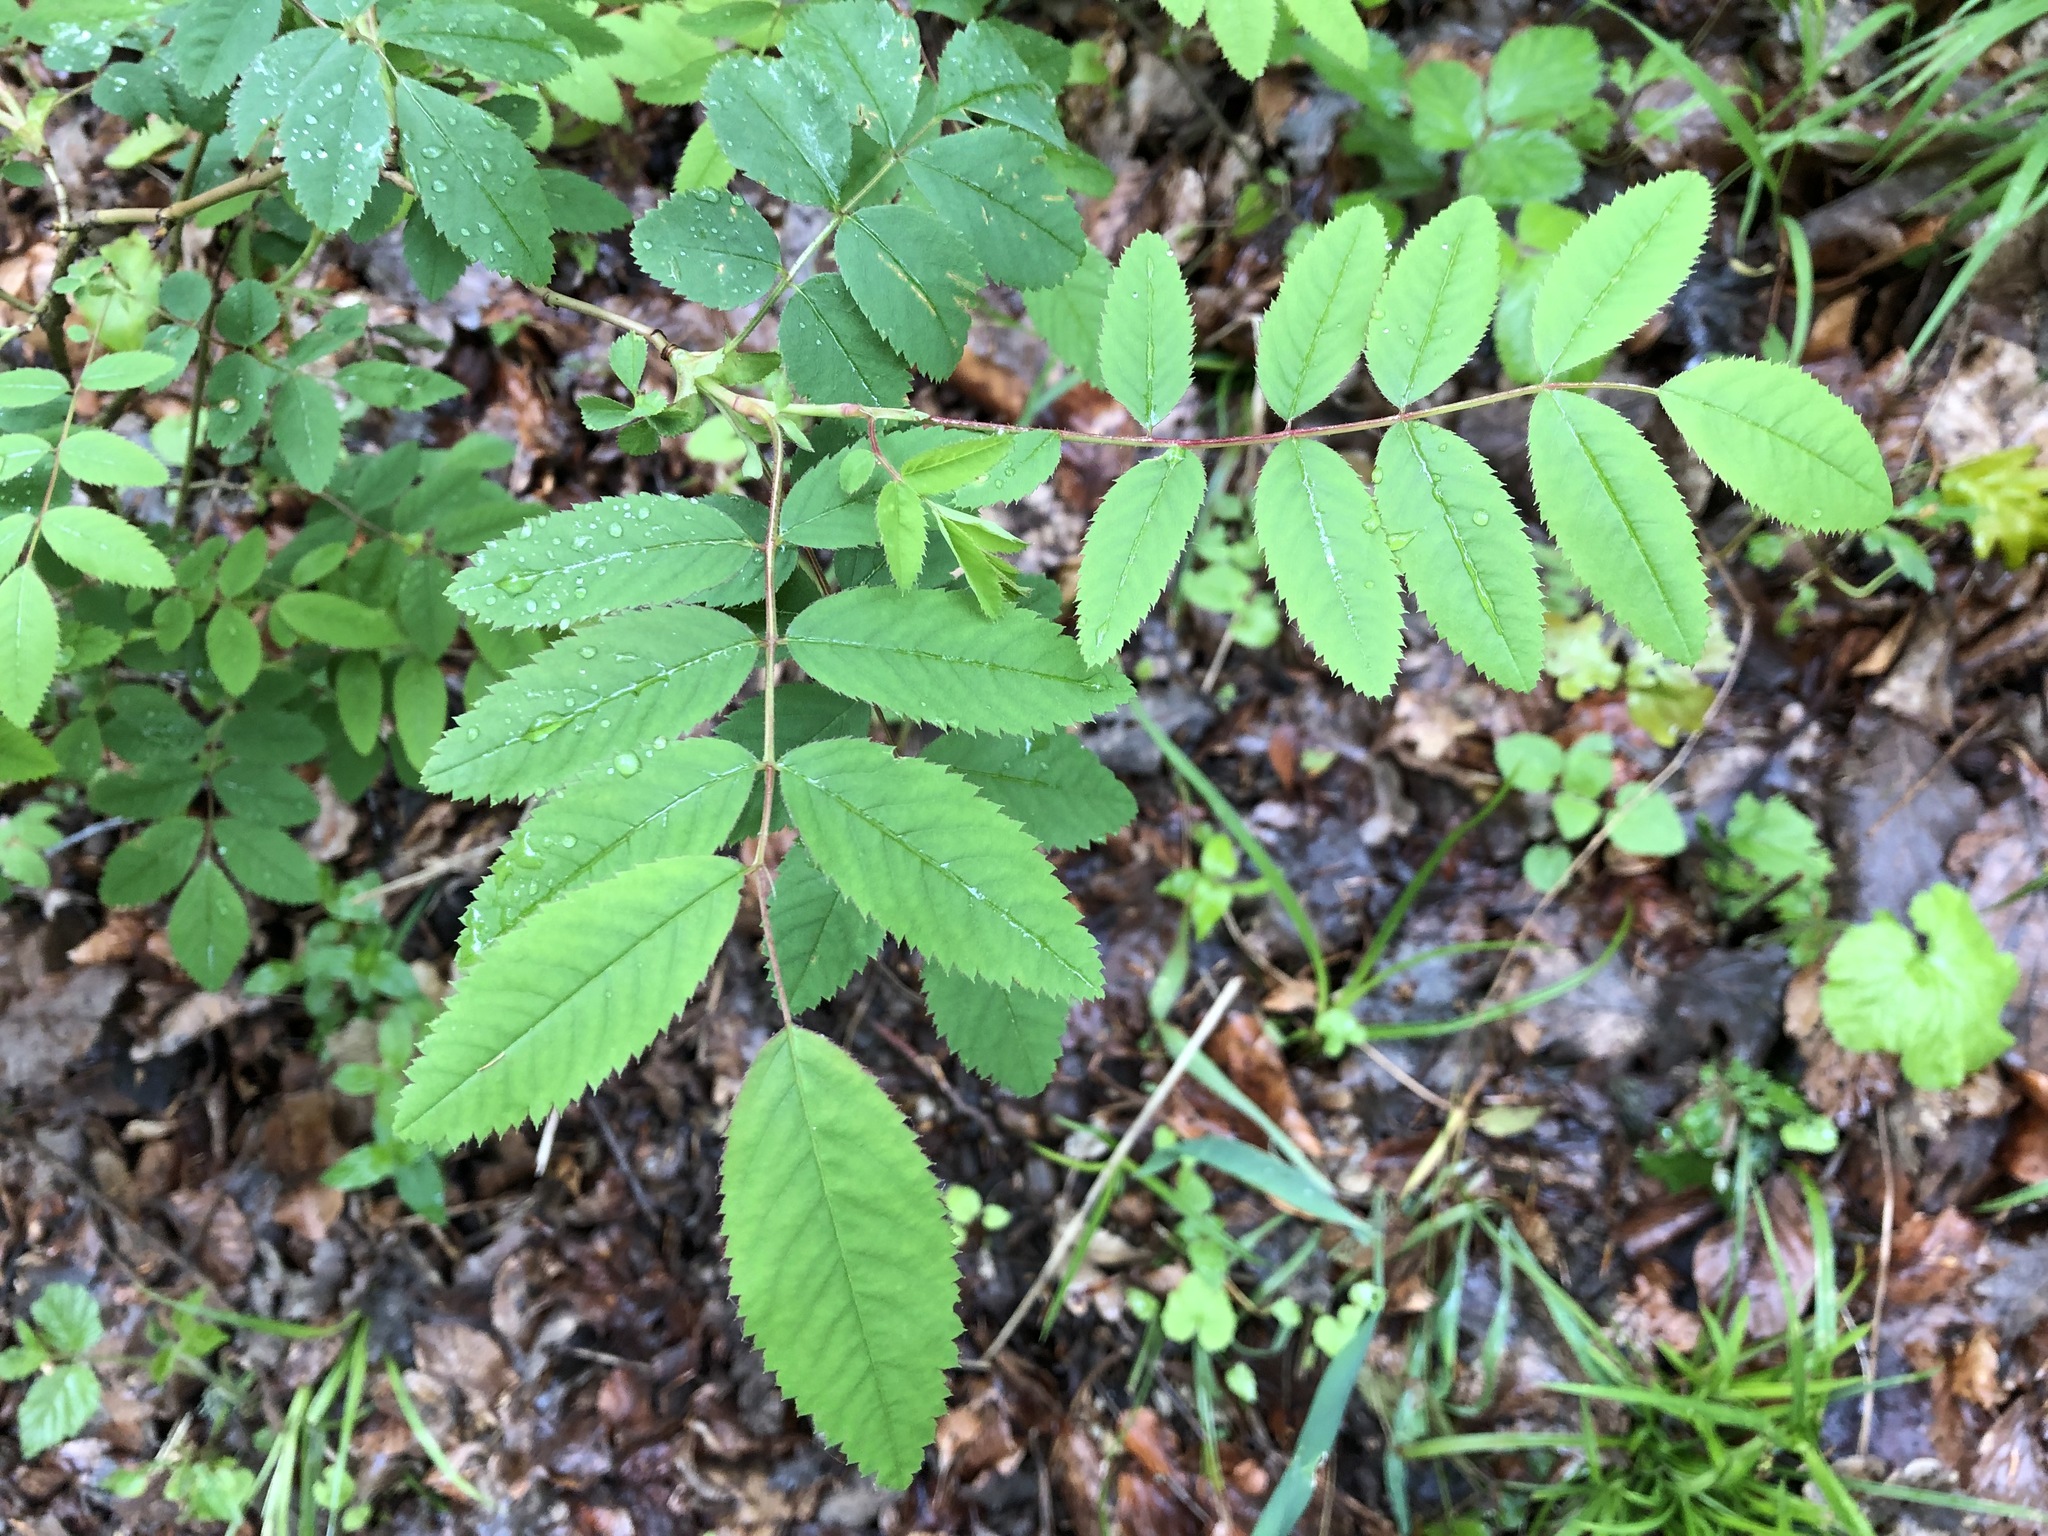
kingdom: Plantae
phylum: Tracheophyta
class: Magnoliopsida
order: Rosales
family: Rosaceae
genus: Rosa
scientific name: Rosa pendulina
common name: Alpine rose
